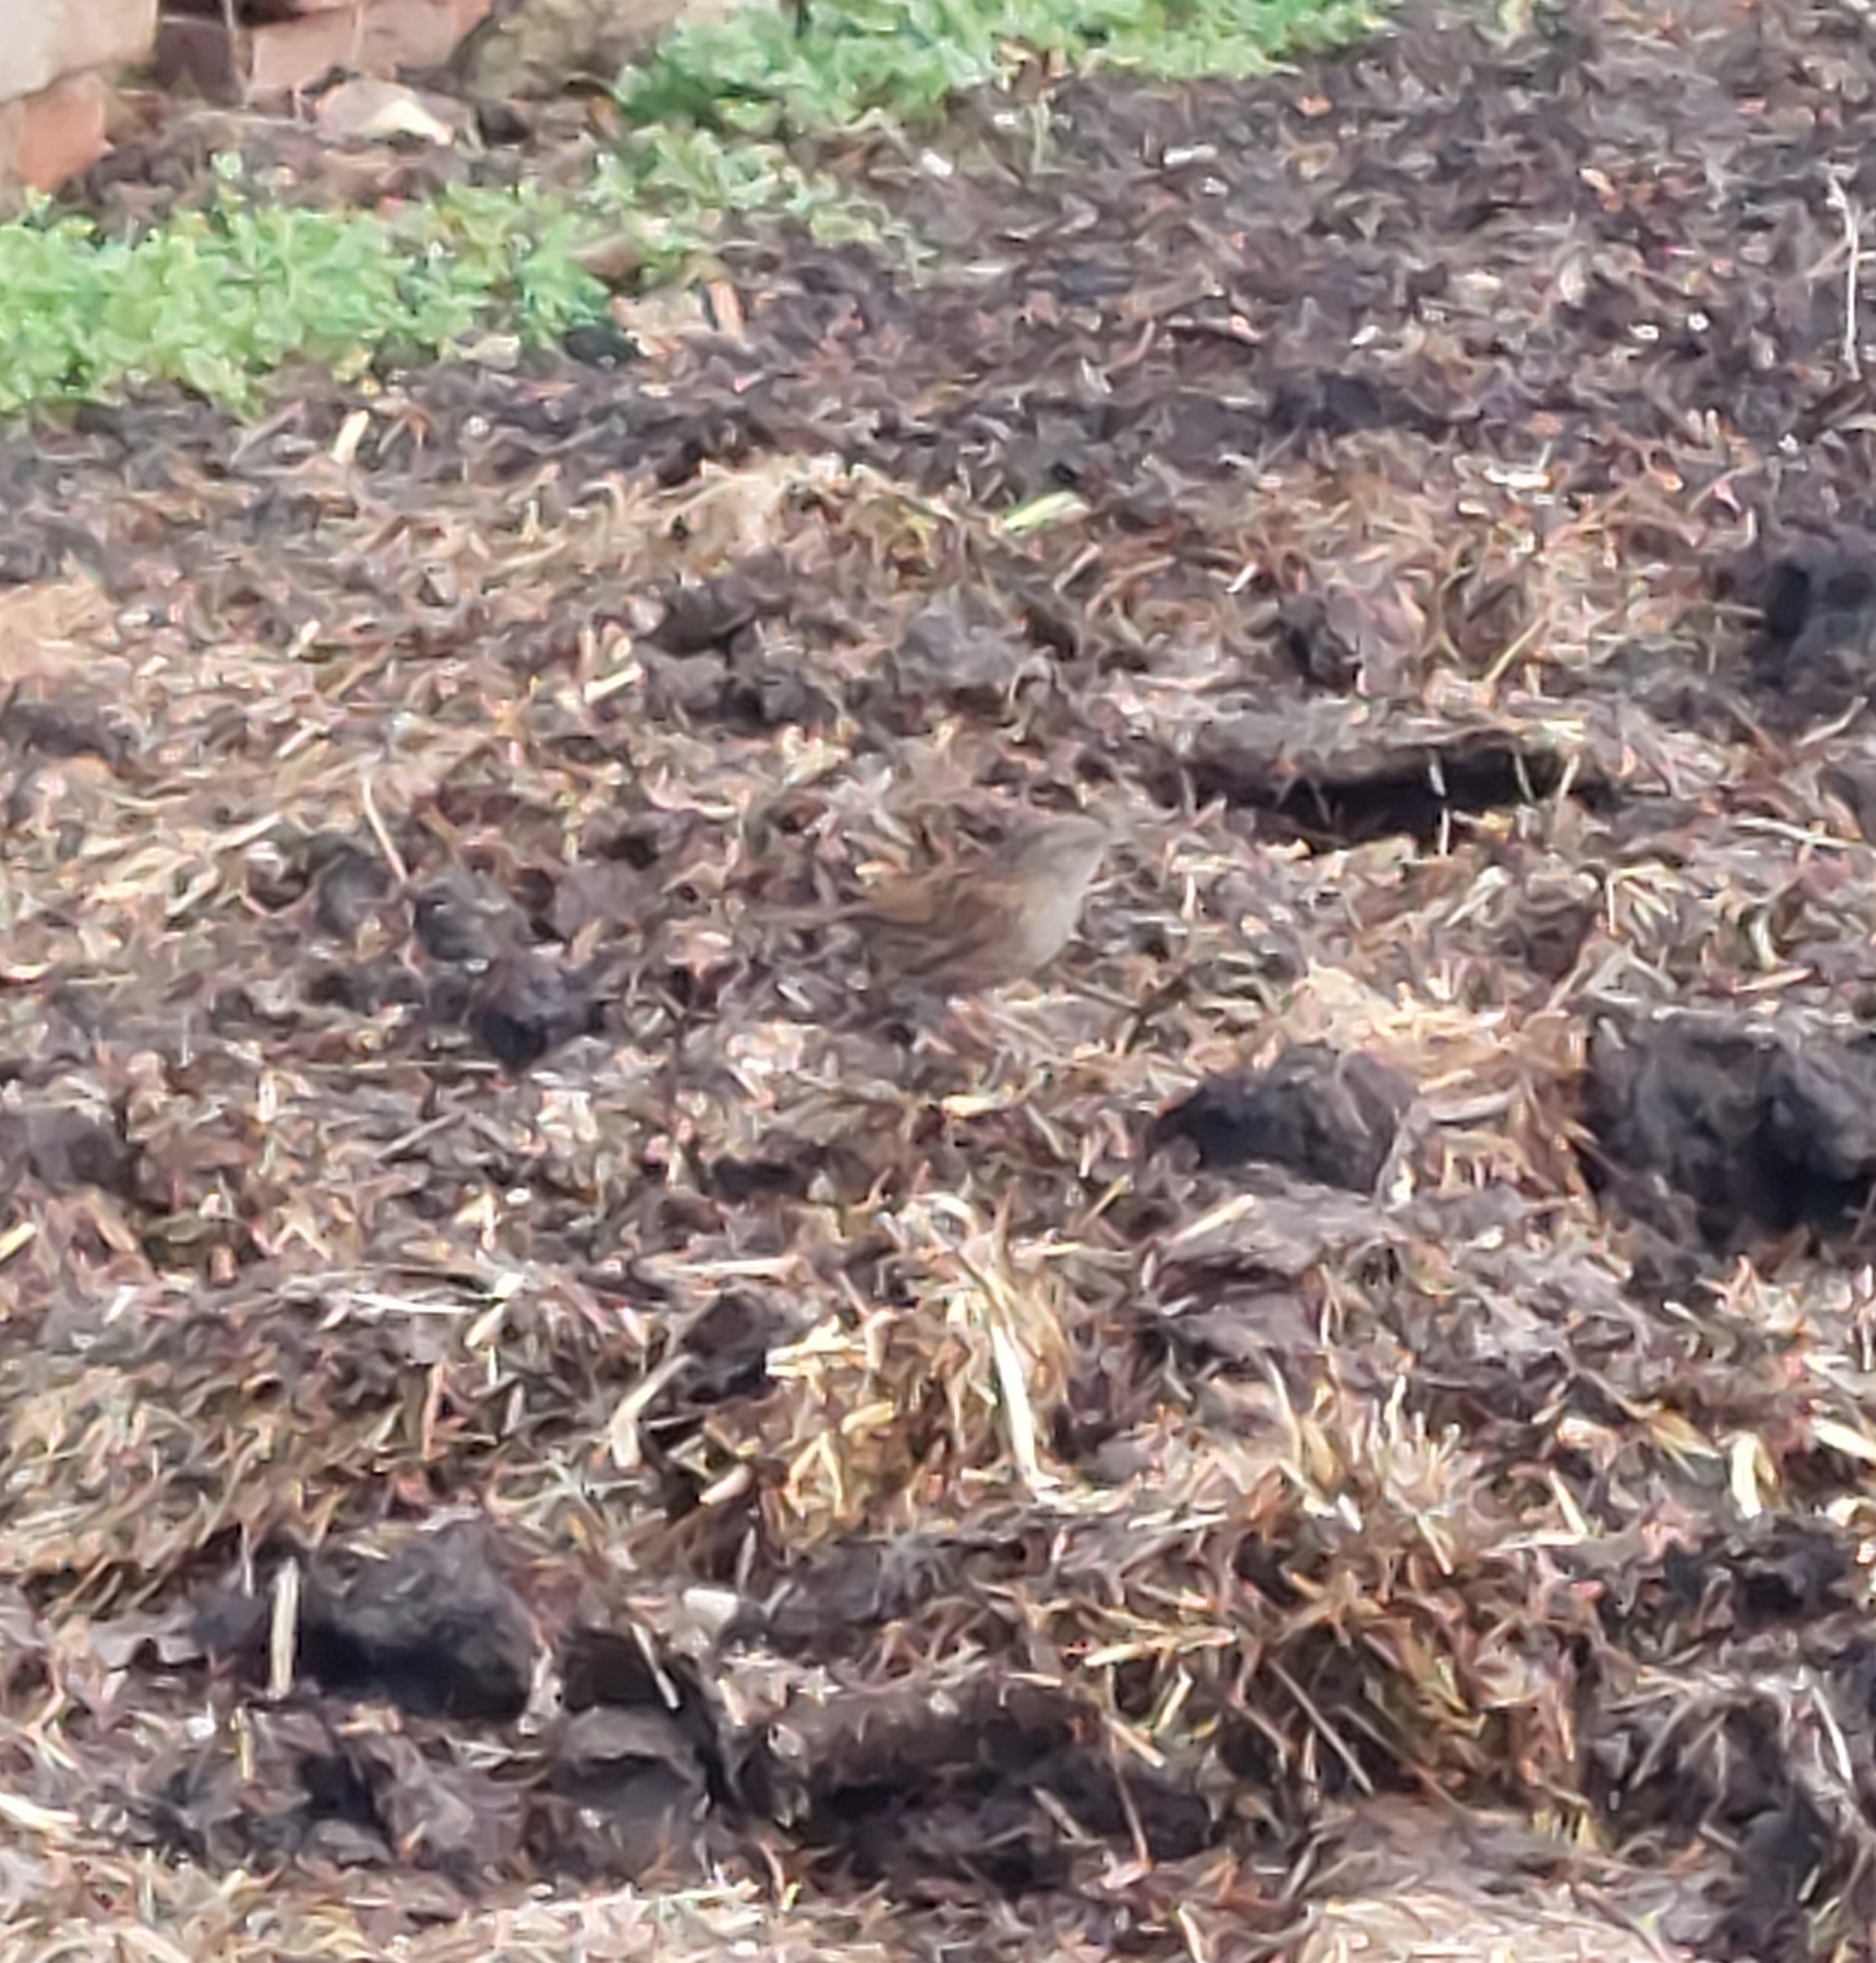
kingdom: Animalia
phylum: Chordata
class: Aves
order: Passeriformes
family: Prunellidae
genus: Prunella
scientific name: Prunella modularis
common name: Dunnock
